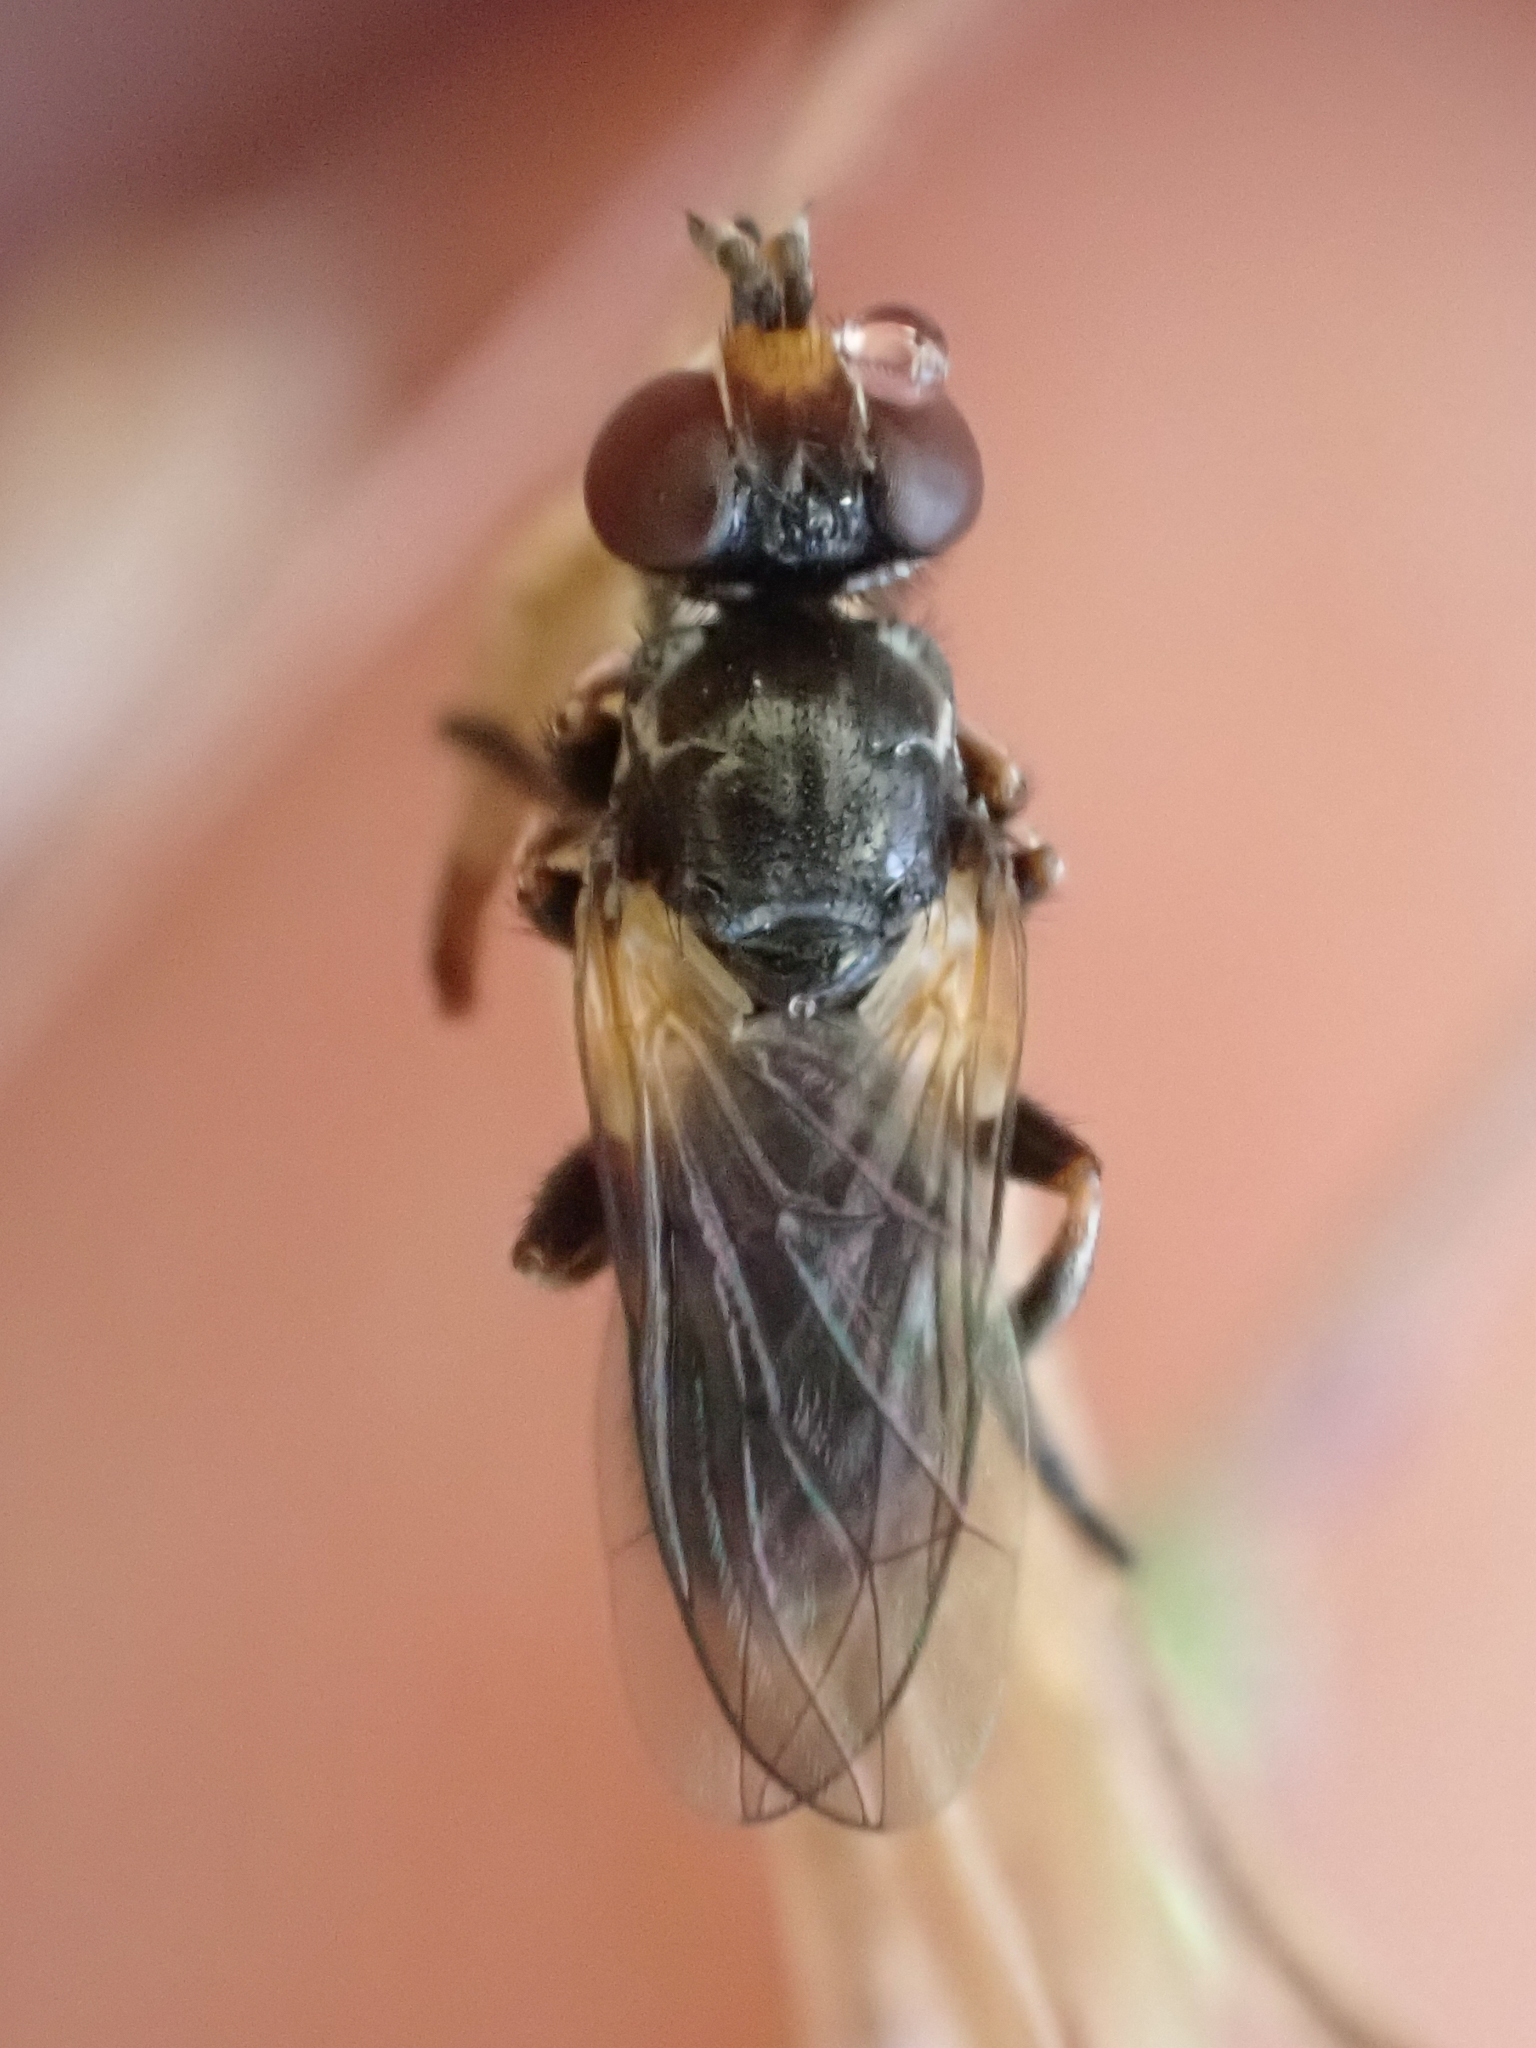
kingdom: Animalia
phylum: Arthropoda
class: Insecta
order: Diptera
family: Conopidae
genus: Thecophora
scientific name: Thecophora occidensis
